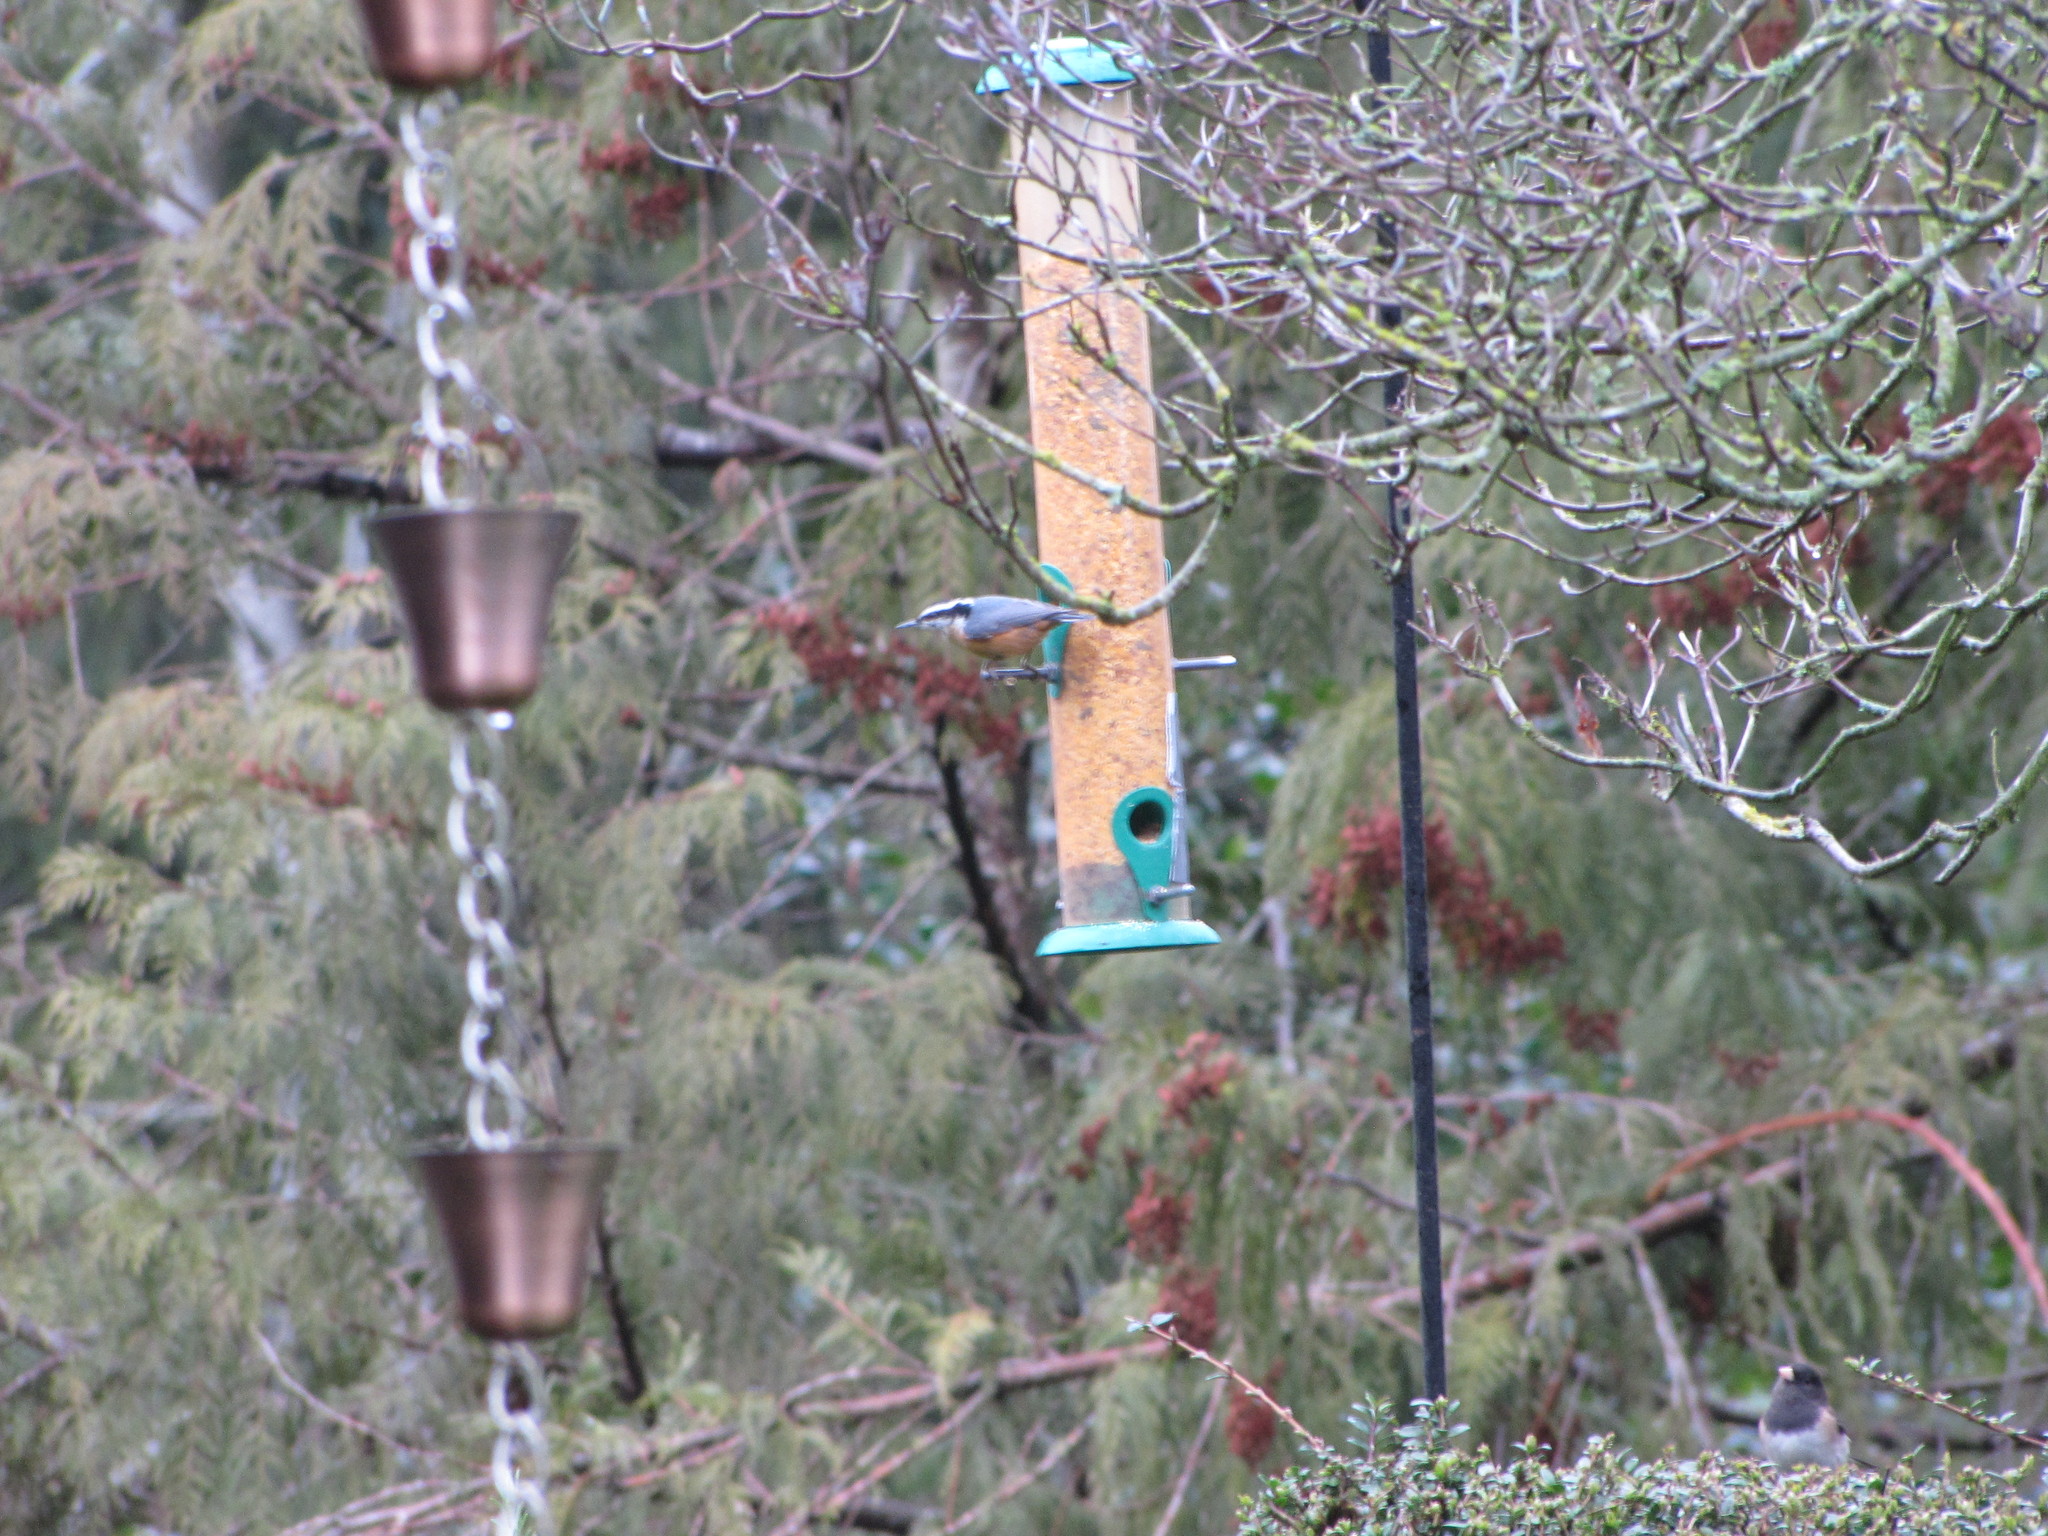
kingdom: Animalia
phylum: Chordata
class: Aves
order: Passeriformes
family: Sittidae
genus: Sitta
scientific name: Sitta canadensis
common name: Red-breasted nuthatch
